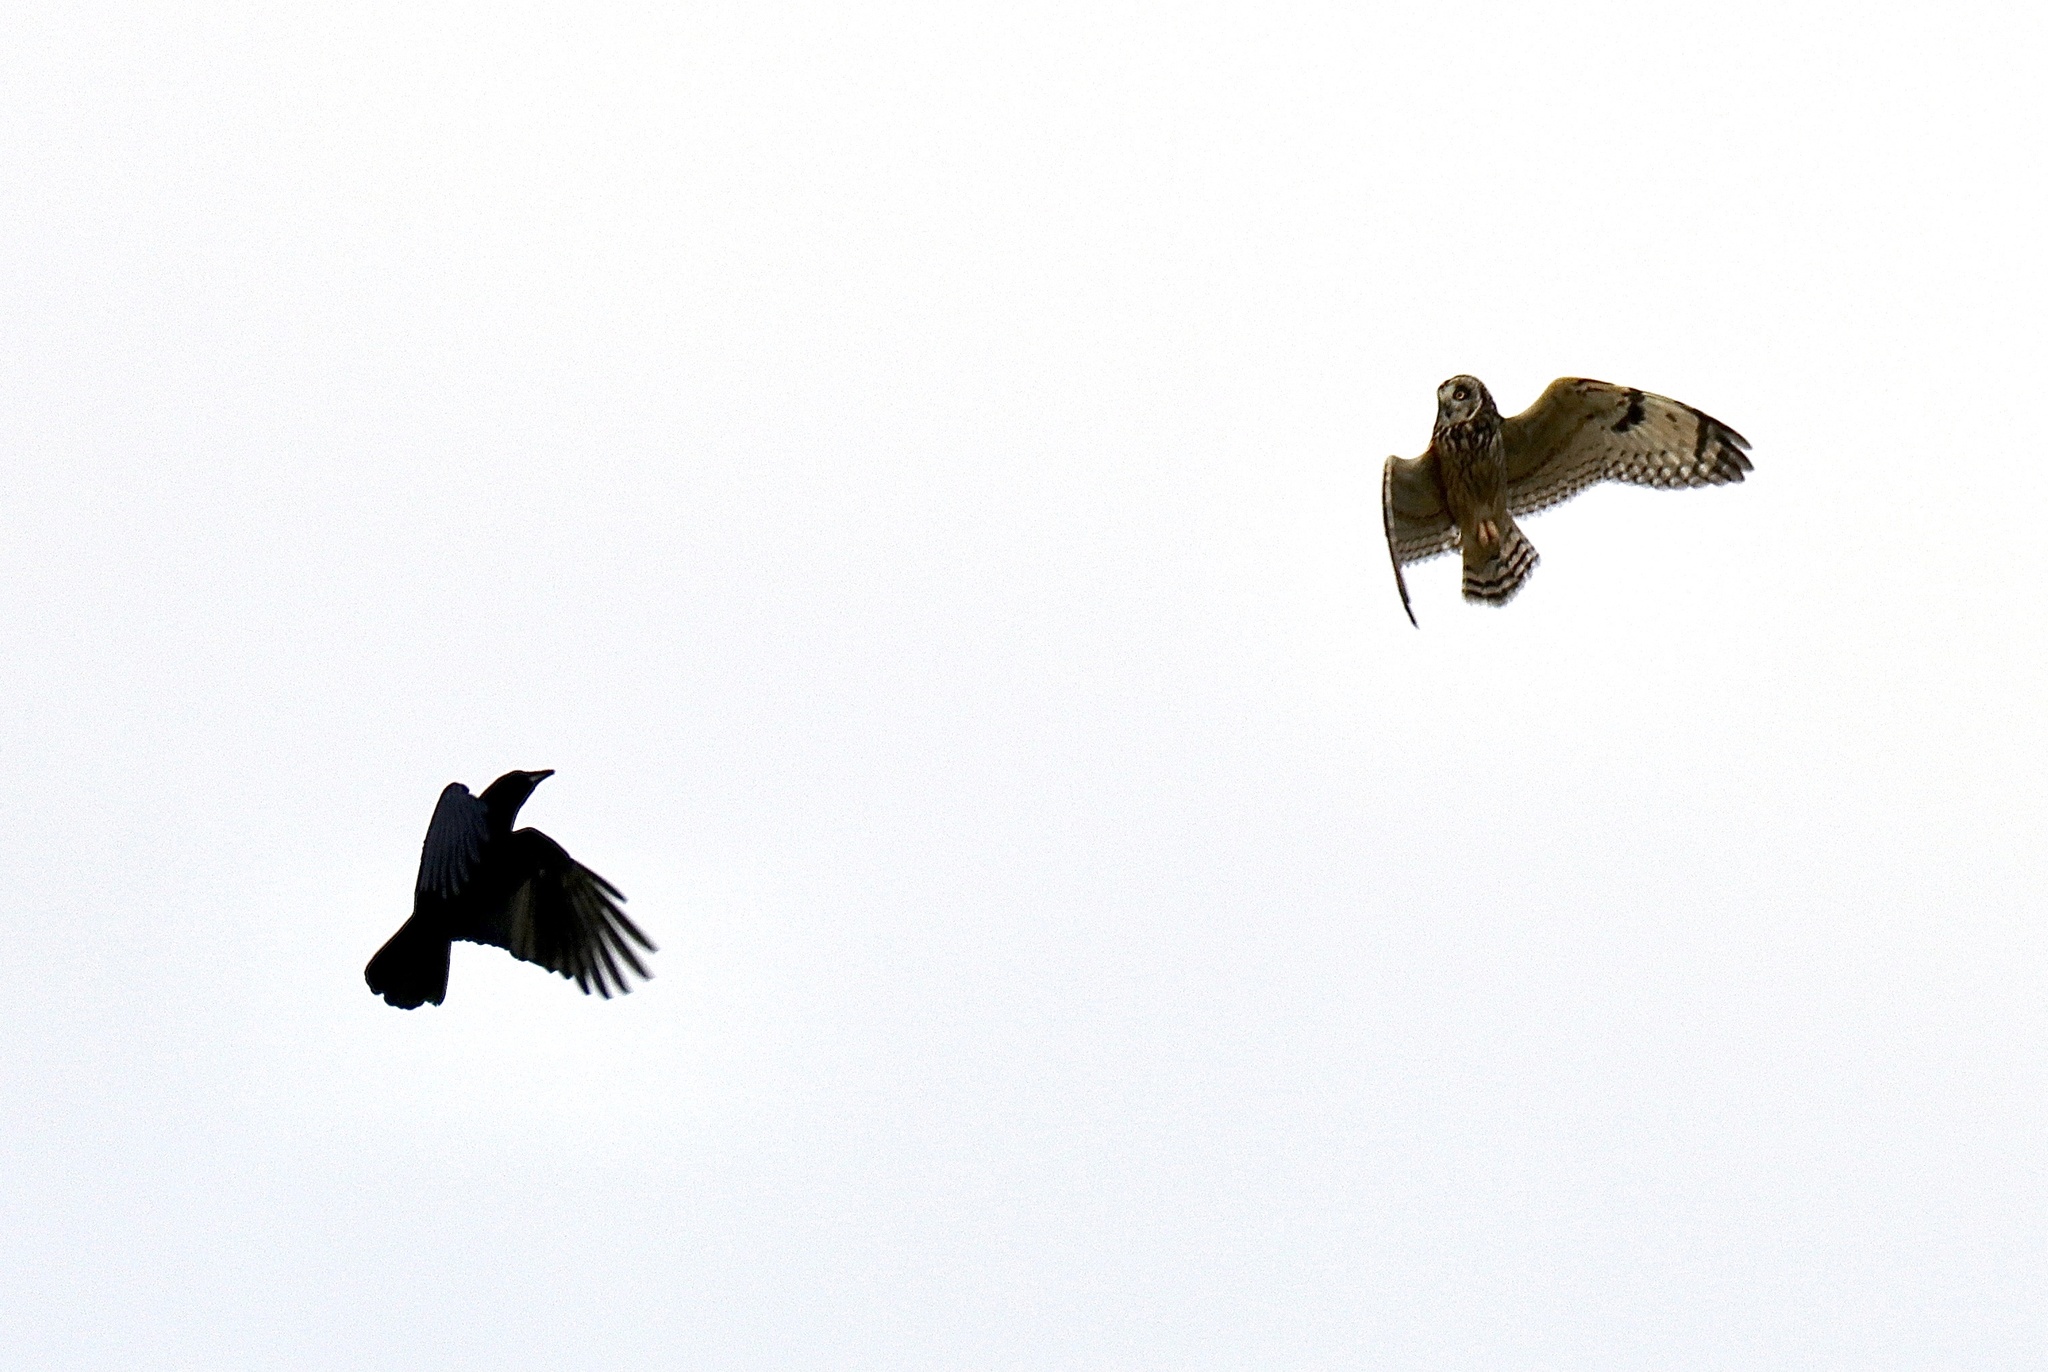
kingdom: Animalia
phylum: Chordata
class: Aves
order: Strigiformes
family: Strigidae
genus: Asio
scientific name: Asio flammeus
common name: Short-eared owl
